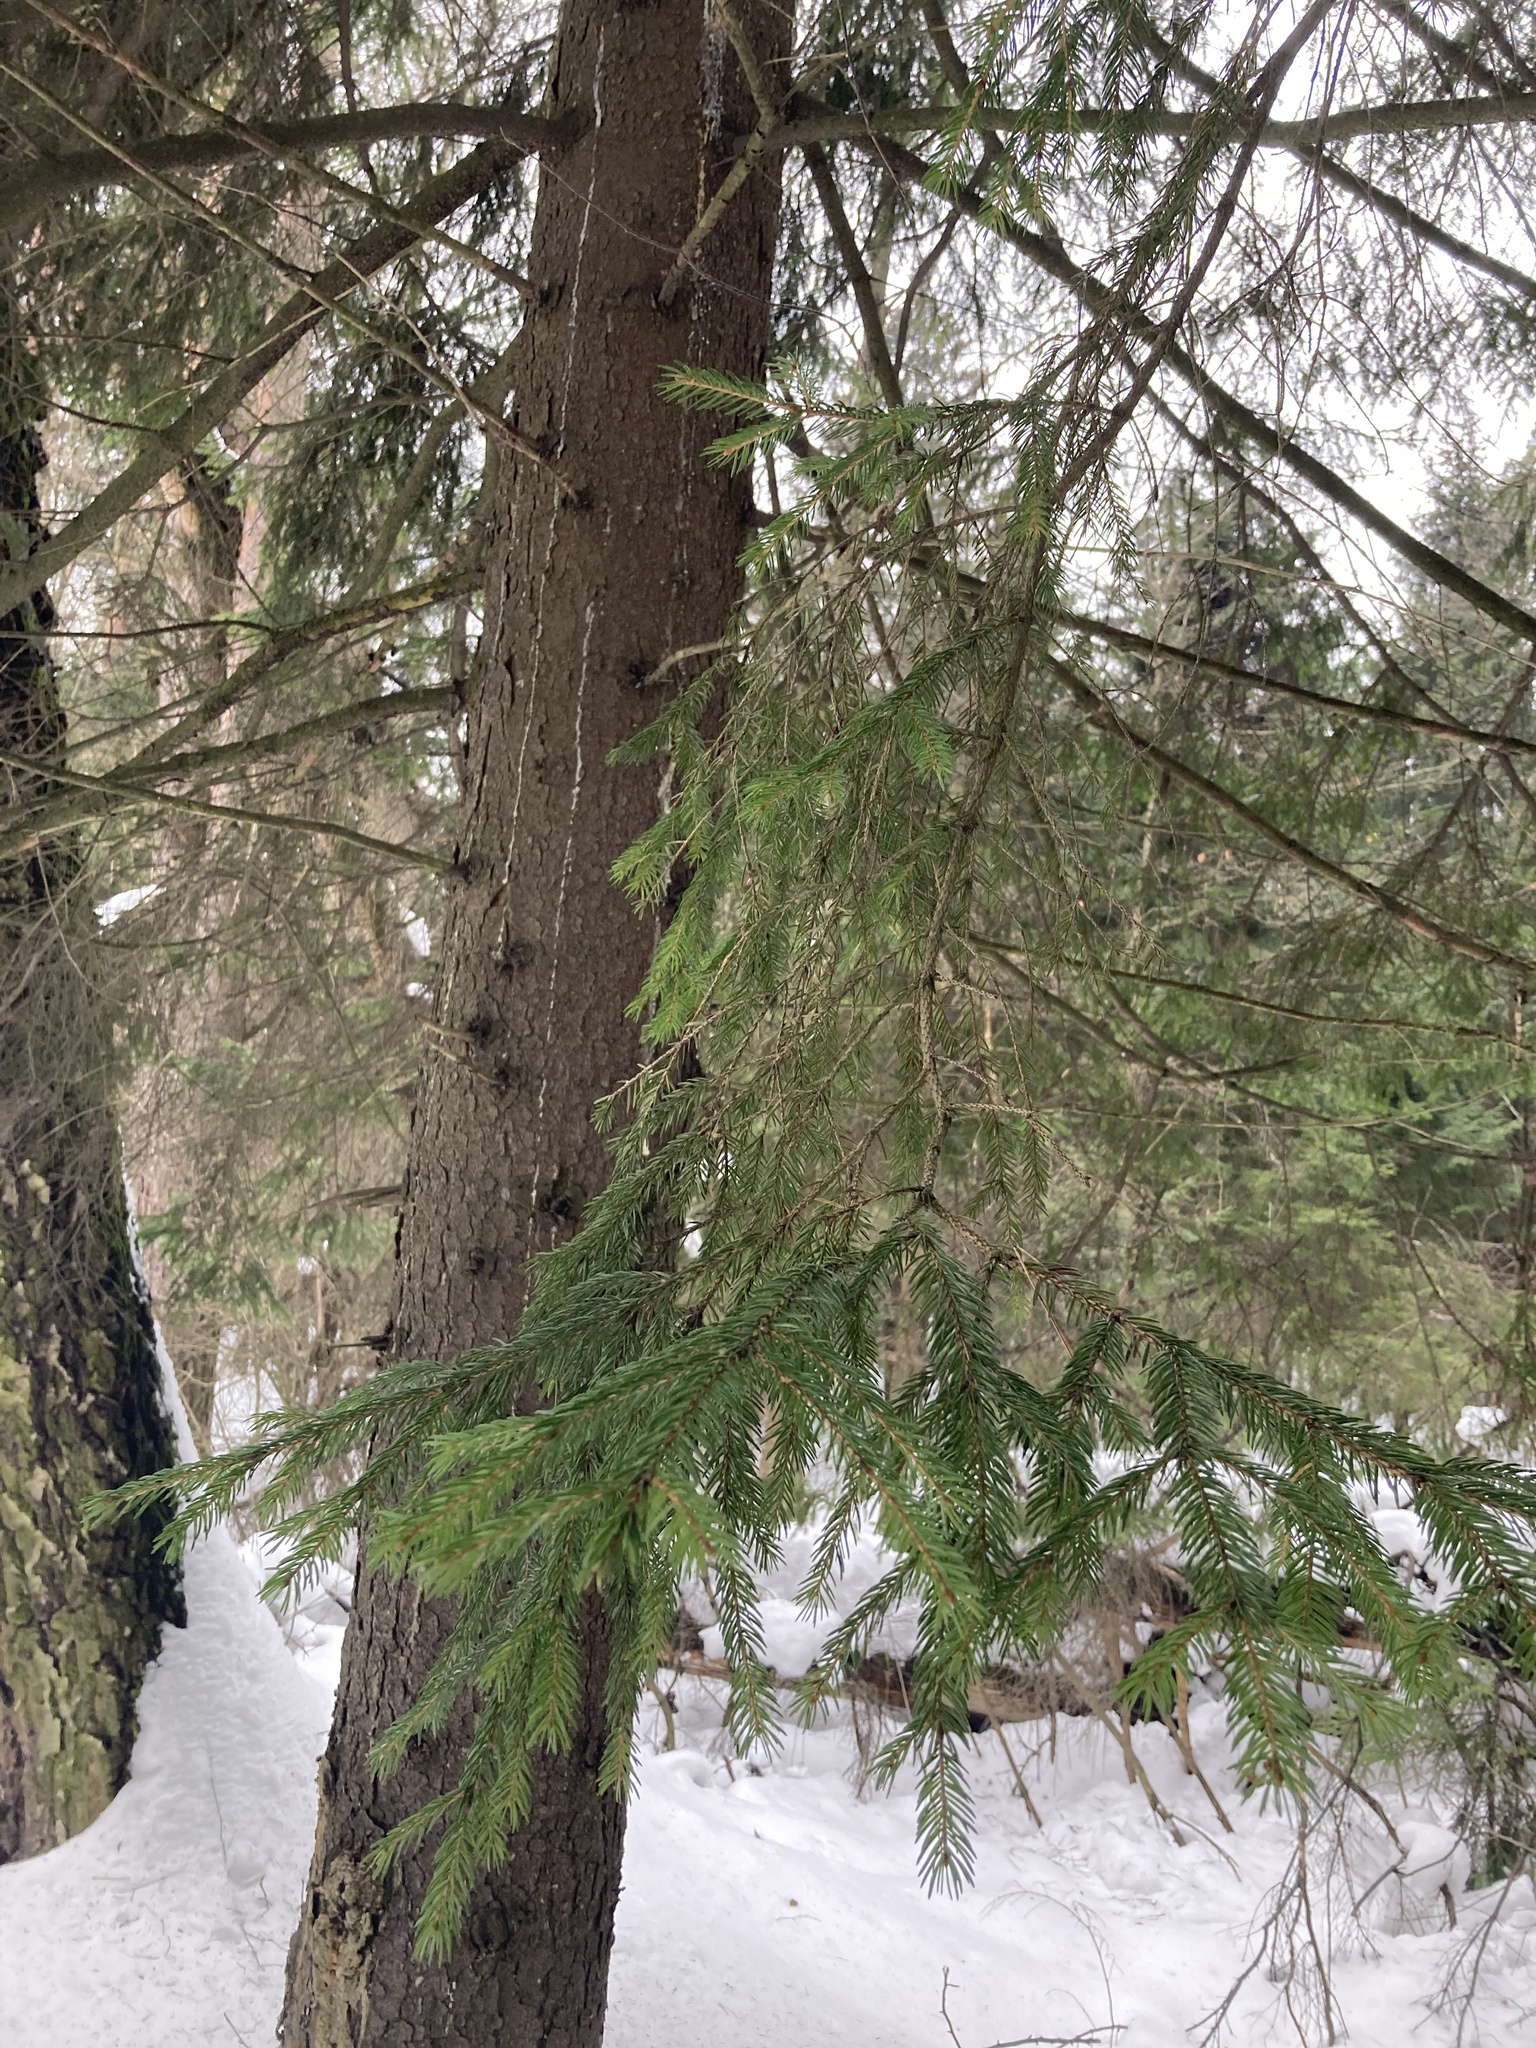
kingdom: Plantae
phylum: Tracheophyta
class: Pinopsida
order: Pinales
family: Pinaceae
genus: Picea
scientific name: Picea abies
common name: Norway spruce
